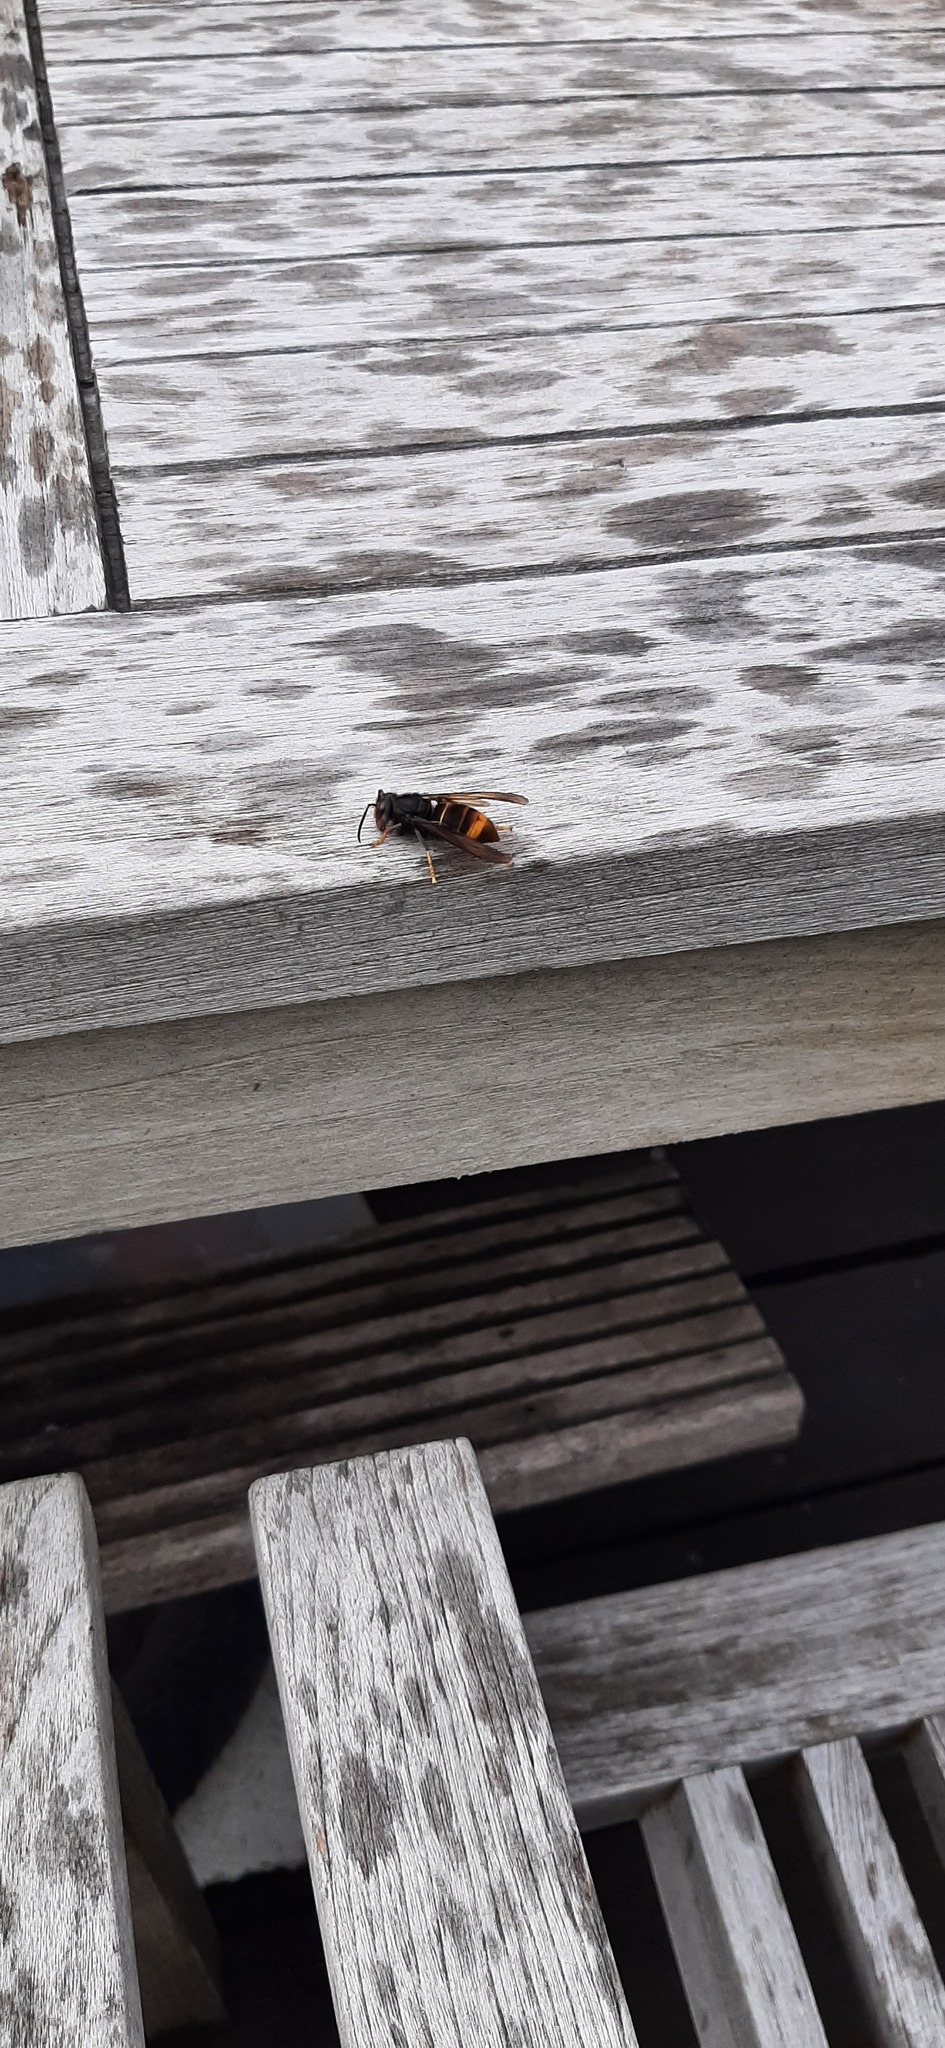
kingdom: Animalia
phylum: Arthropoda
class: Insecta
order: Hymenoptera
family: Vespidae
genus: Vespa
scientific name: Vespa velutina
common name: Asian hornet
